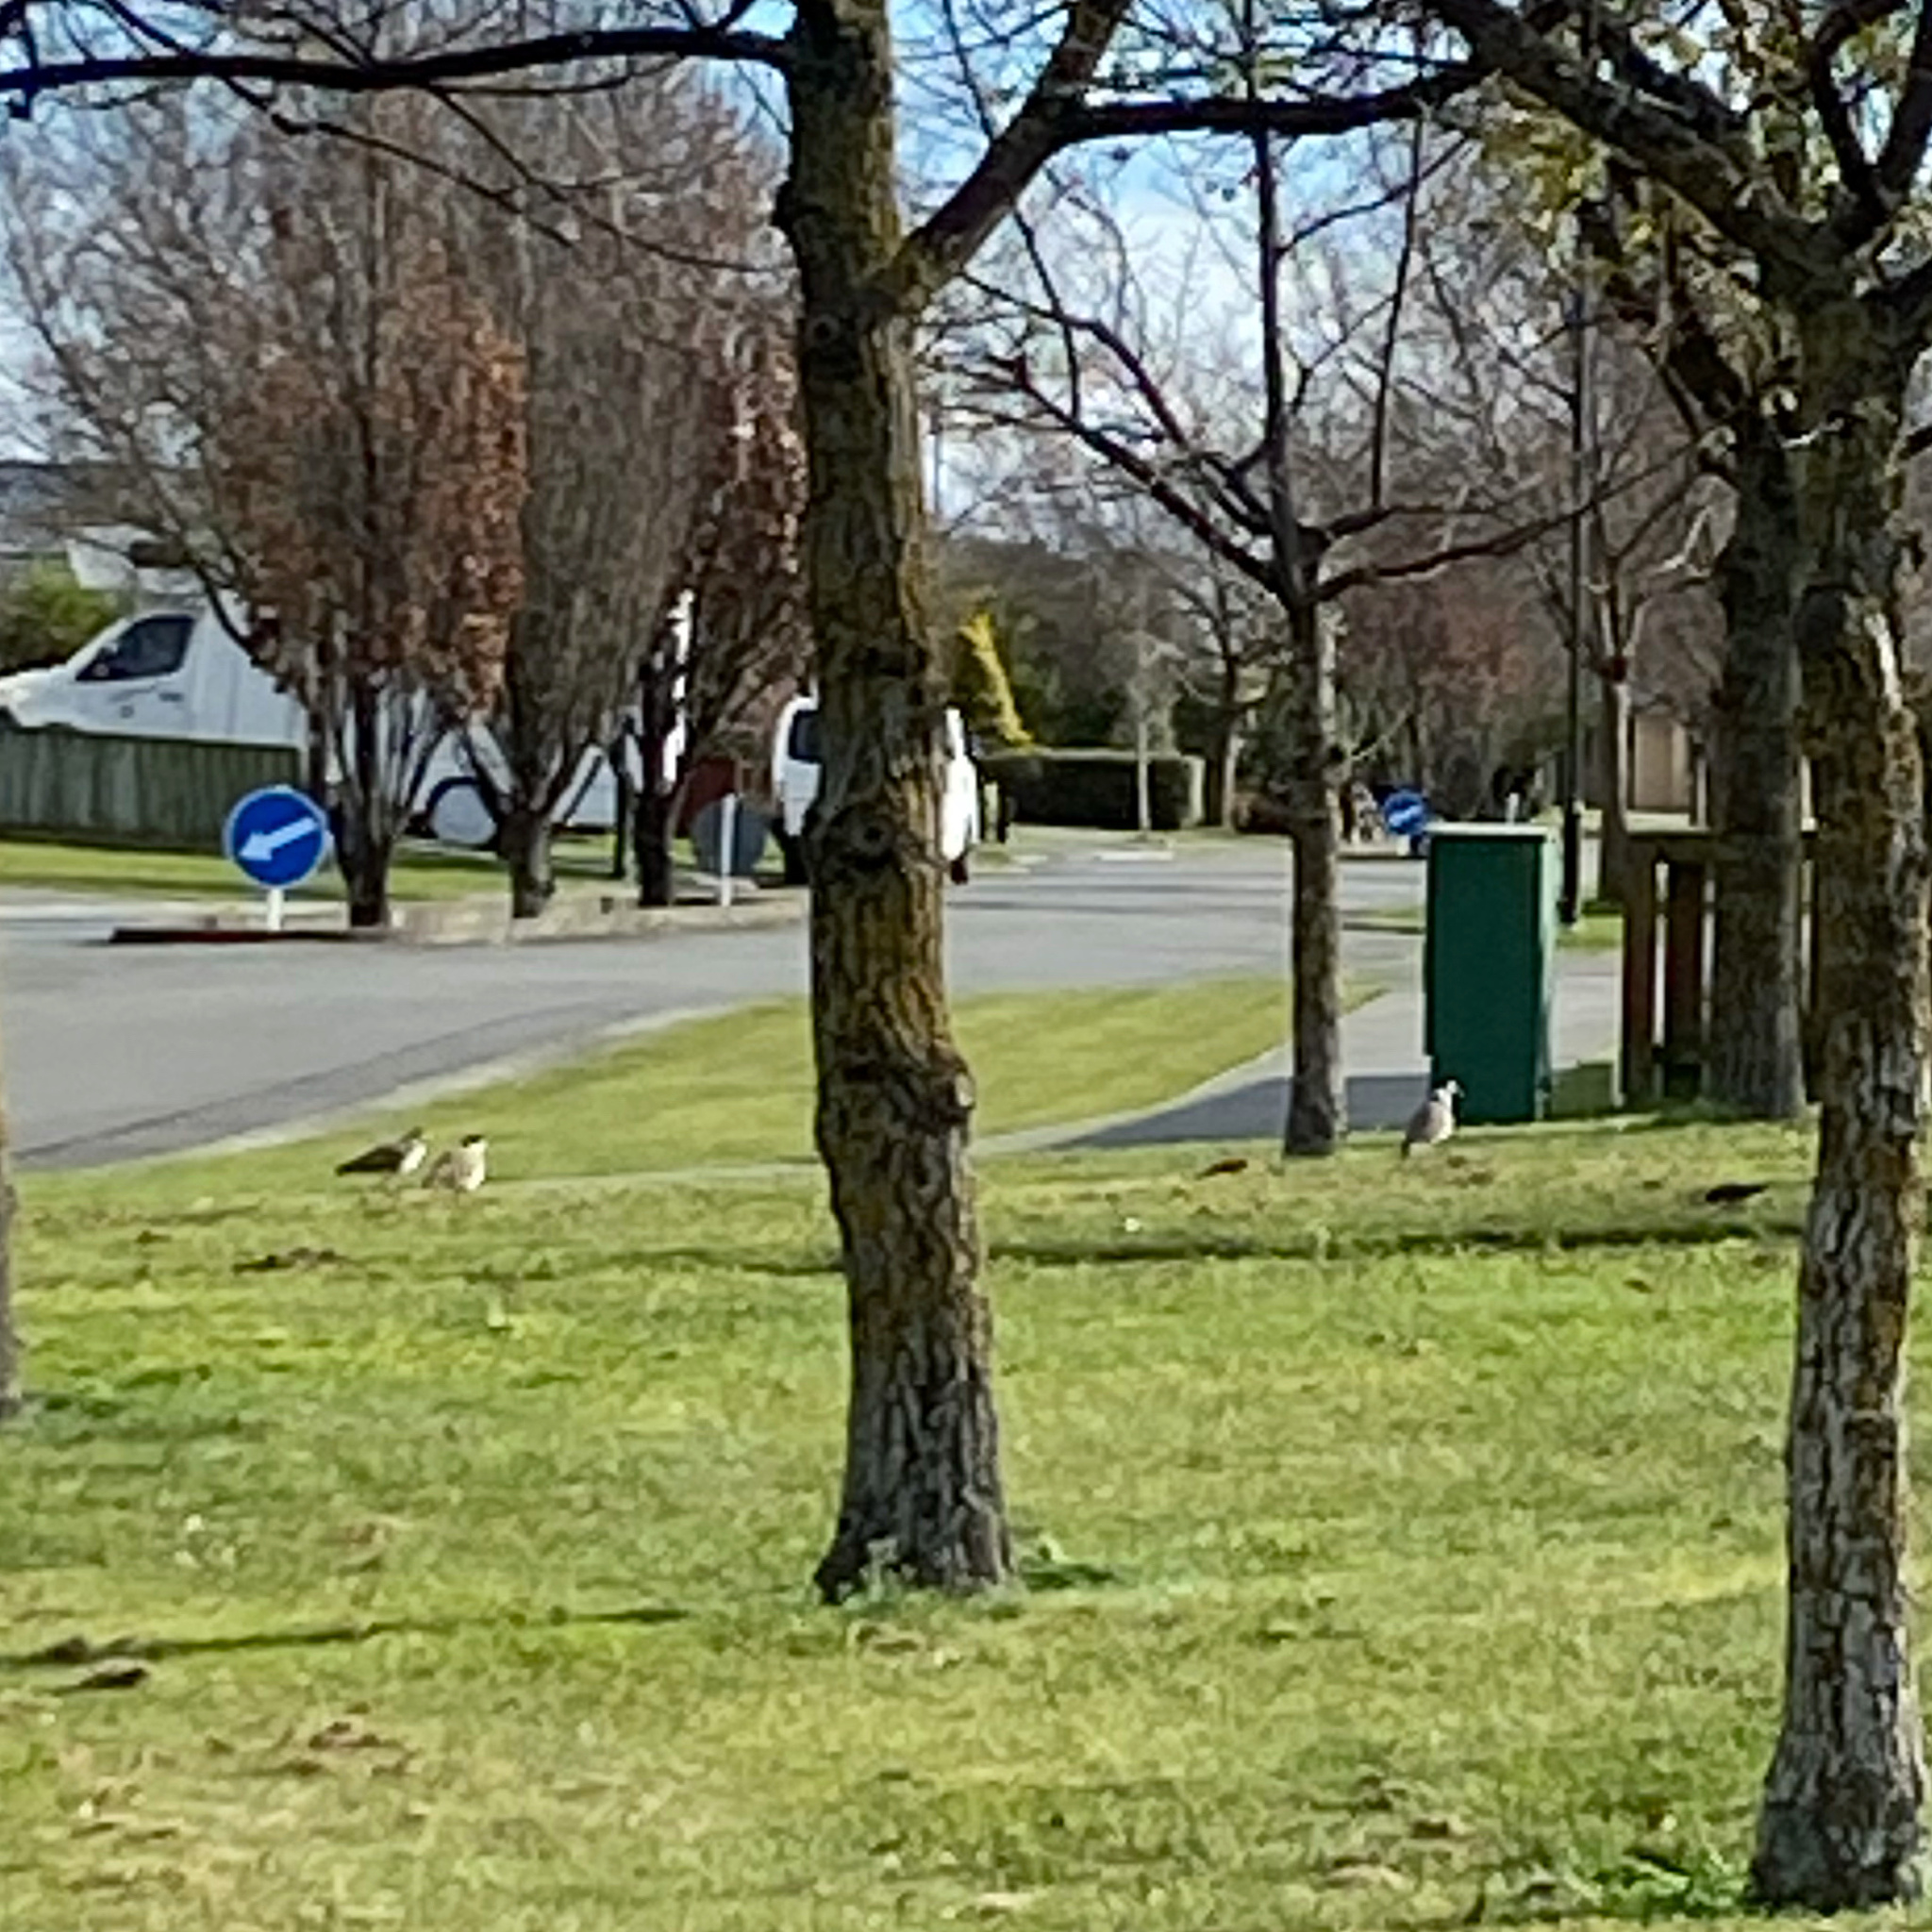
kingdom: Animalia
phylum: Chordata
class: Aves
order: Charadriiformes
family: Charadriidae
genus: Vanellus
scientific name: Vanellus miles
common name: Masked lapwing
